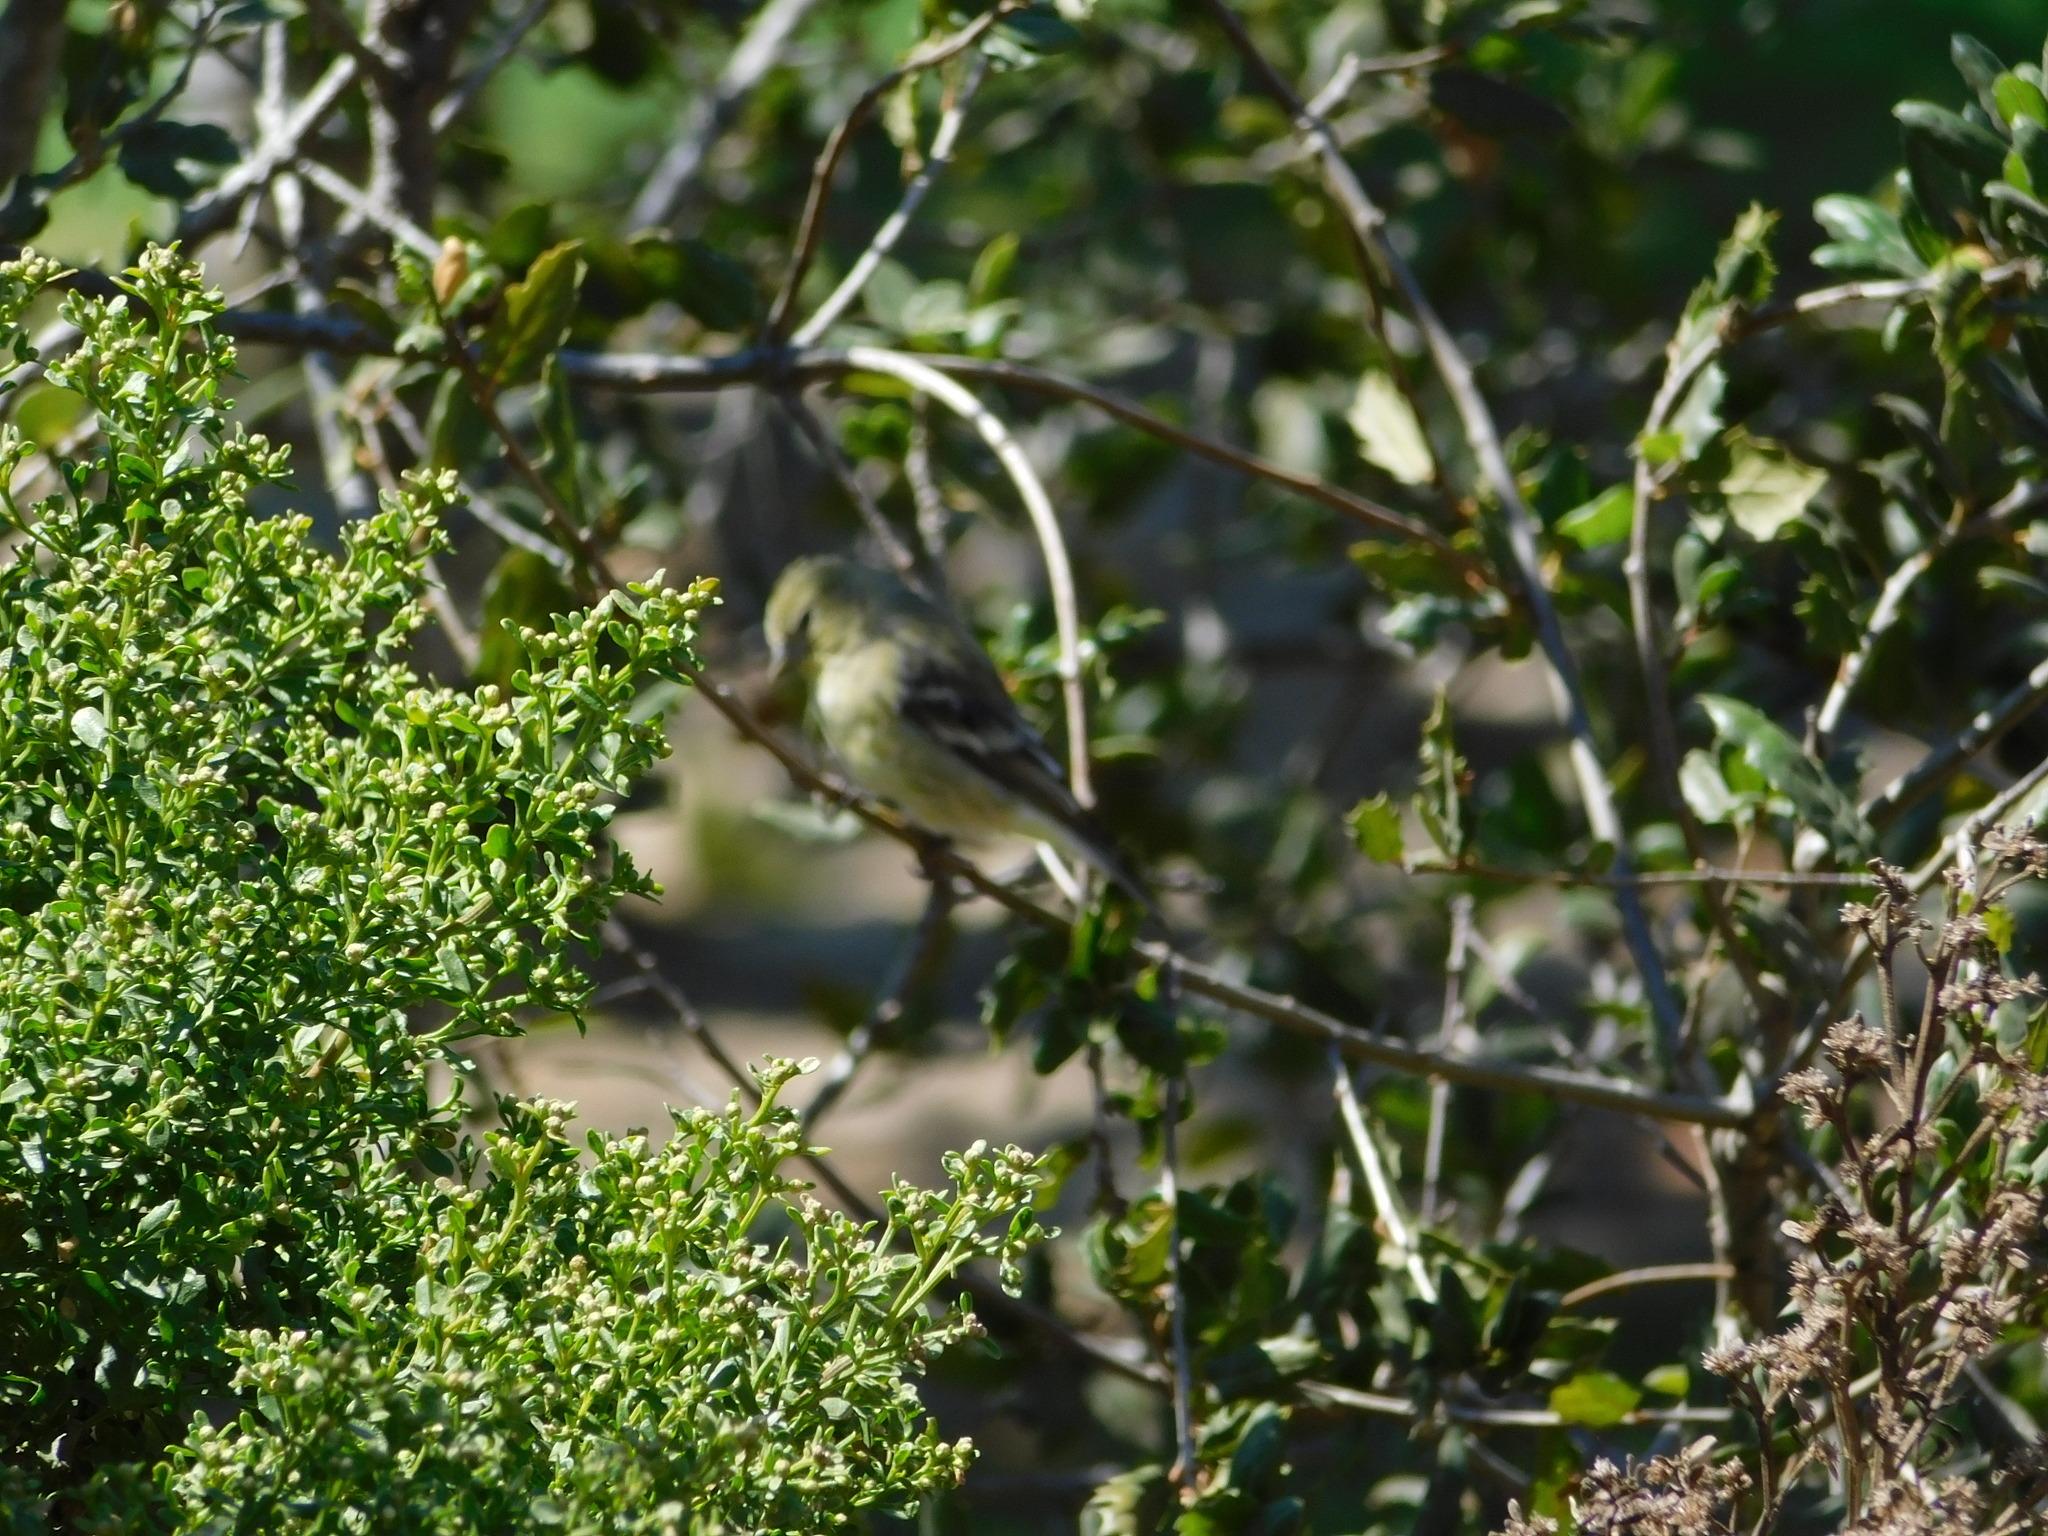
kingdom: Animalia
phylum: Chordata
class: Aves
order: Passeriformes
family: Fringillidae
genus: Spinus
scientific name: Spinus psaltria
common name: Lesser goldfinch
